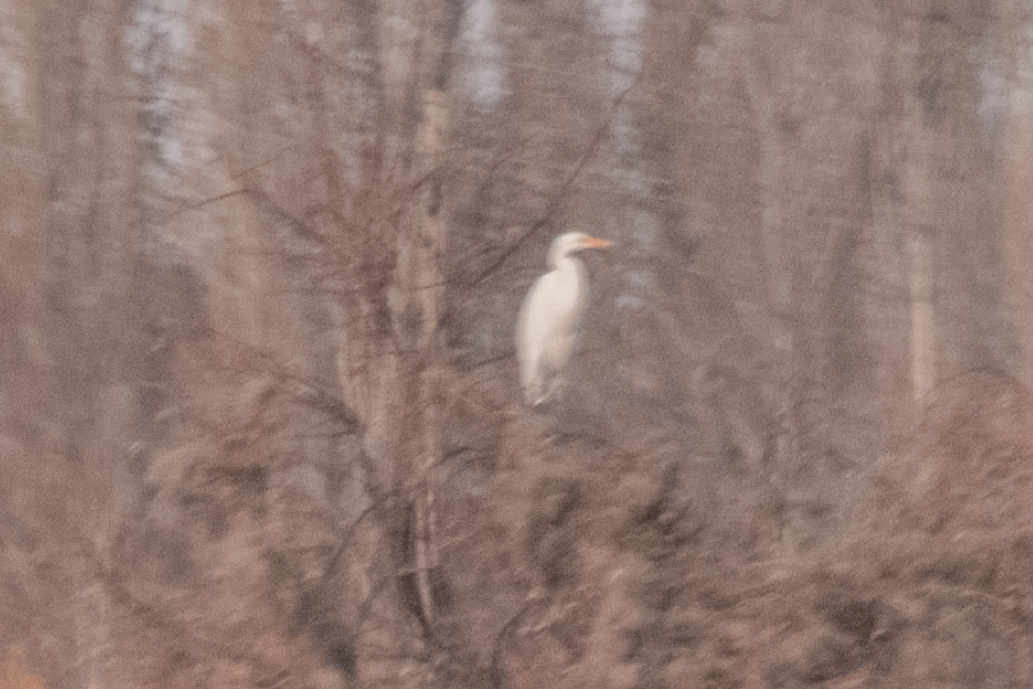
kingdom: Animalia
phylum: Chordata
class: Aves
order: Pelecaniformes
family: Ardeidae
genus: Ardea
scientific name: Ardea alba
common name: Great egret
